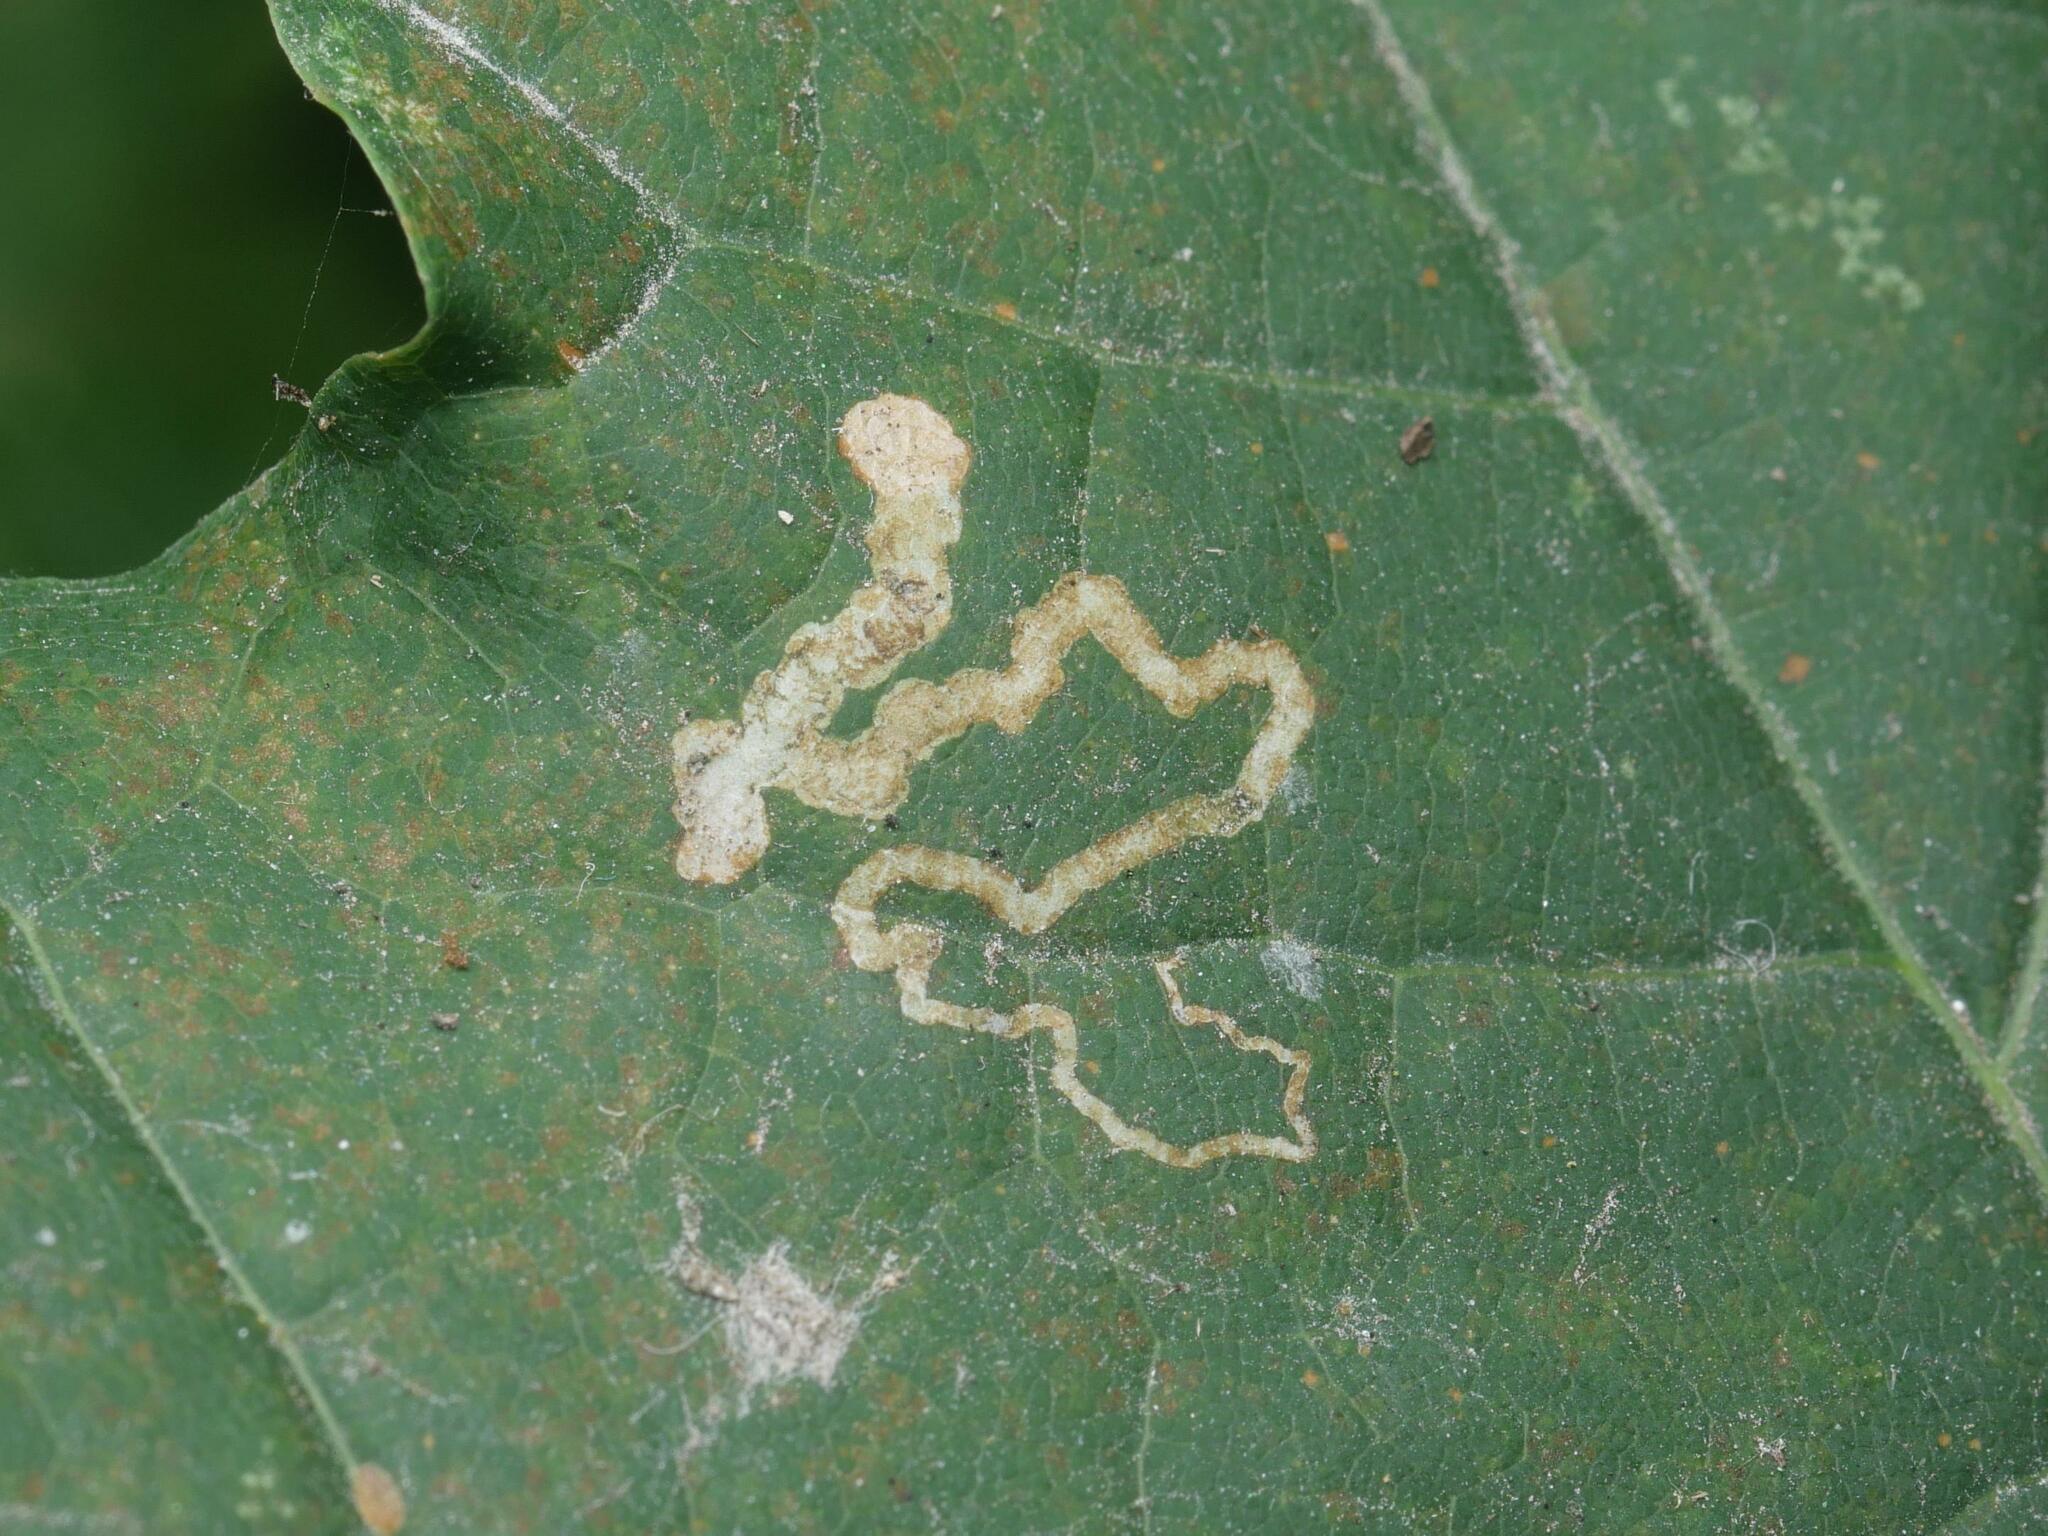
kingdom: Animalia
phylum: Arthropoda
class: Insecta
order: Lepidoptera
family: Nepticulidae
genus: Stigmella
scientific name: Stigmella aceris
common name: Scarce maple pigmy
